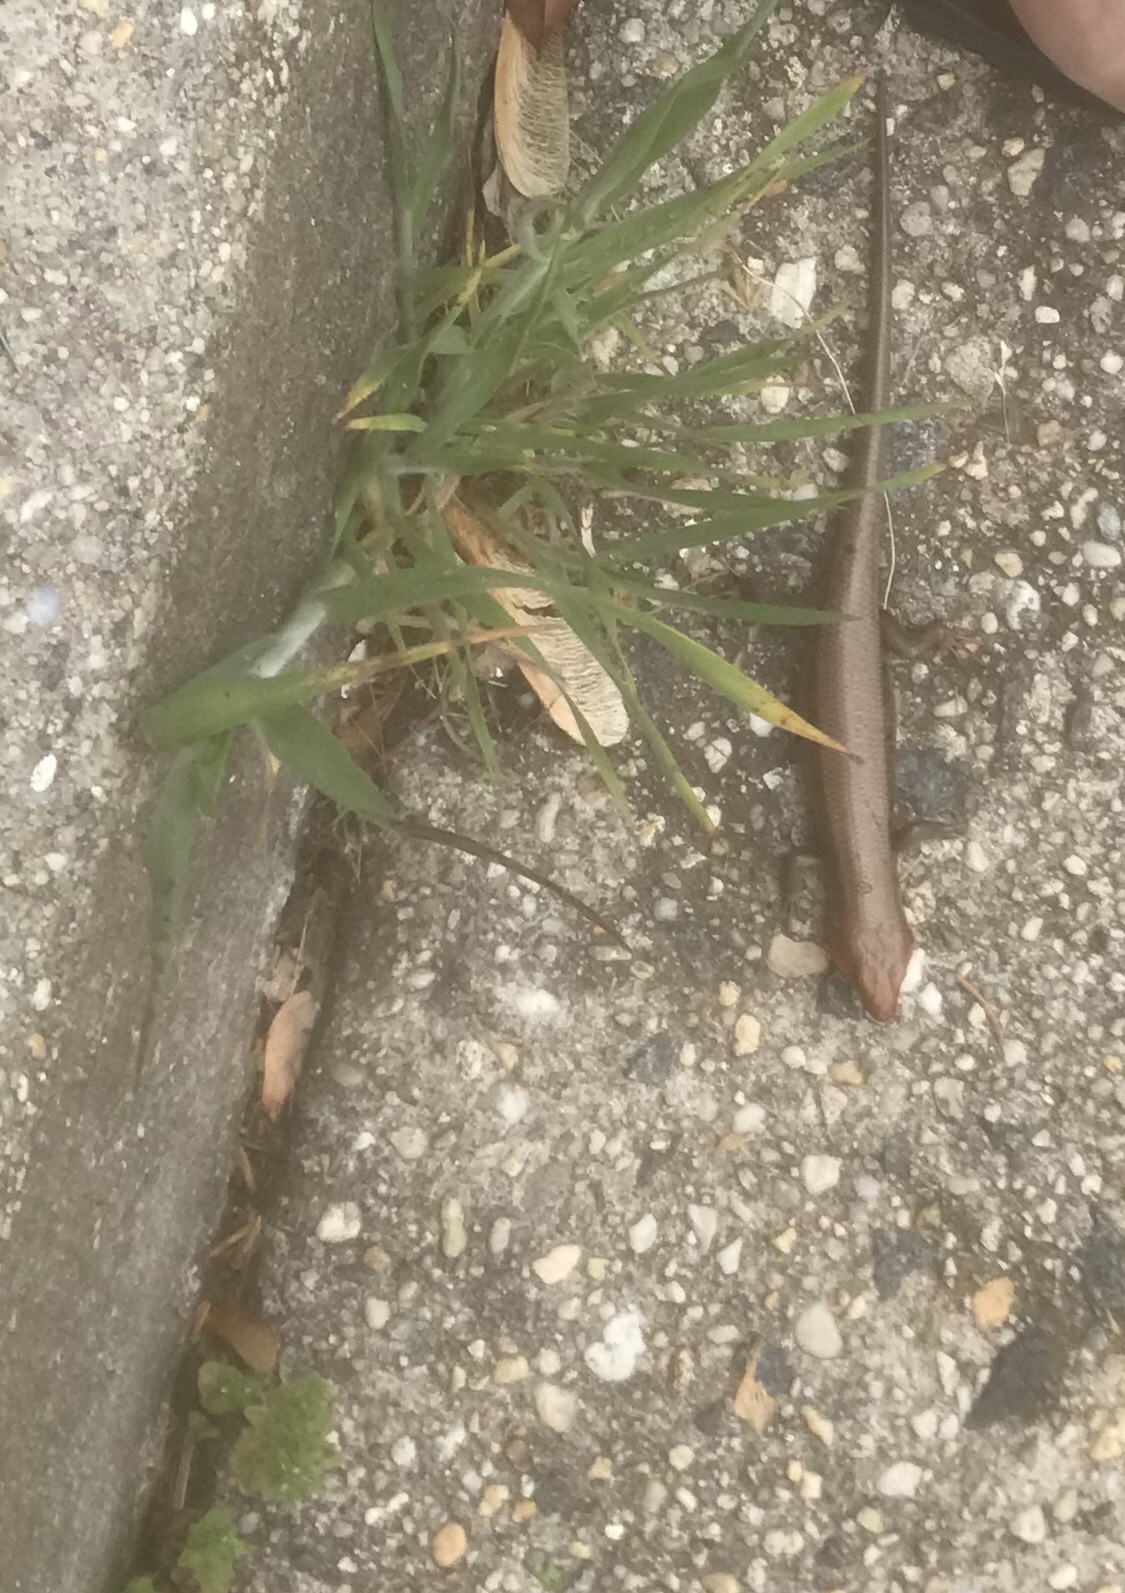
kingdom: Animalia
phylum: Chordata
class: Squamata
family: Scincidae
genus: Plestiodon
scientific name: Plestiodon fasciatus
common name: Five-lined skink
